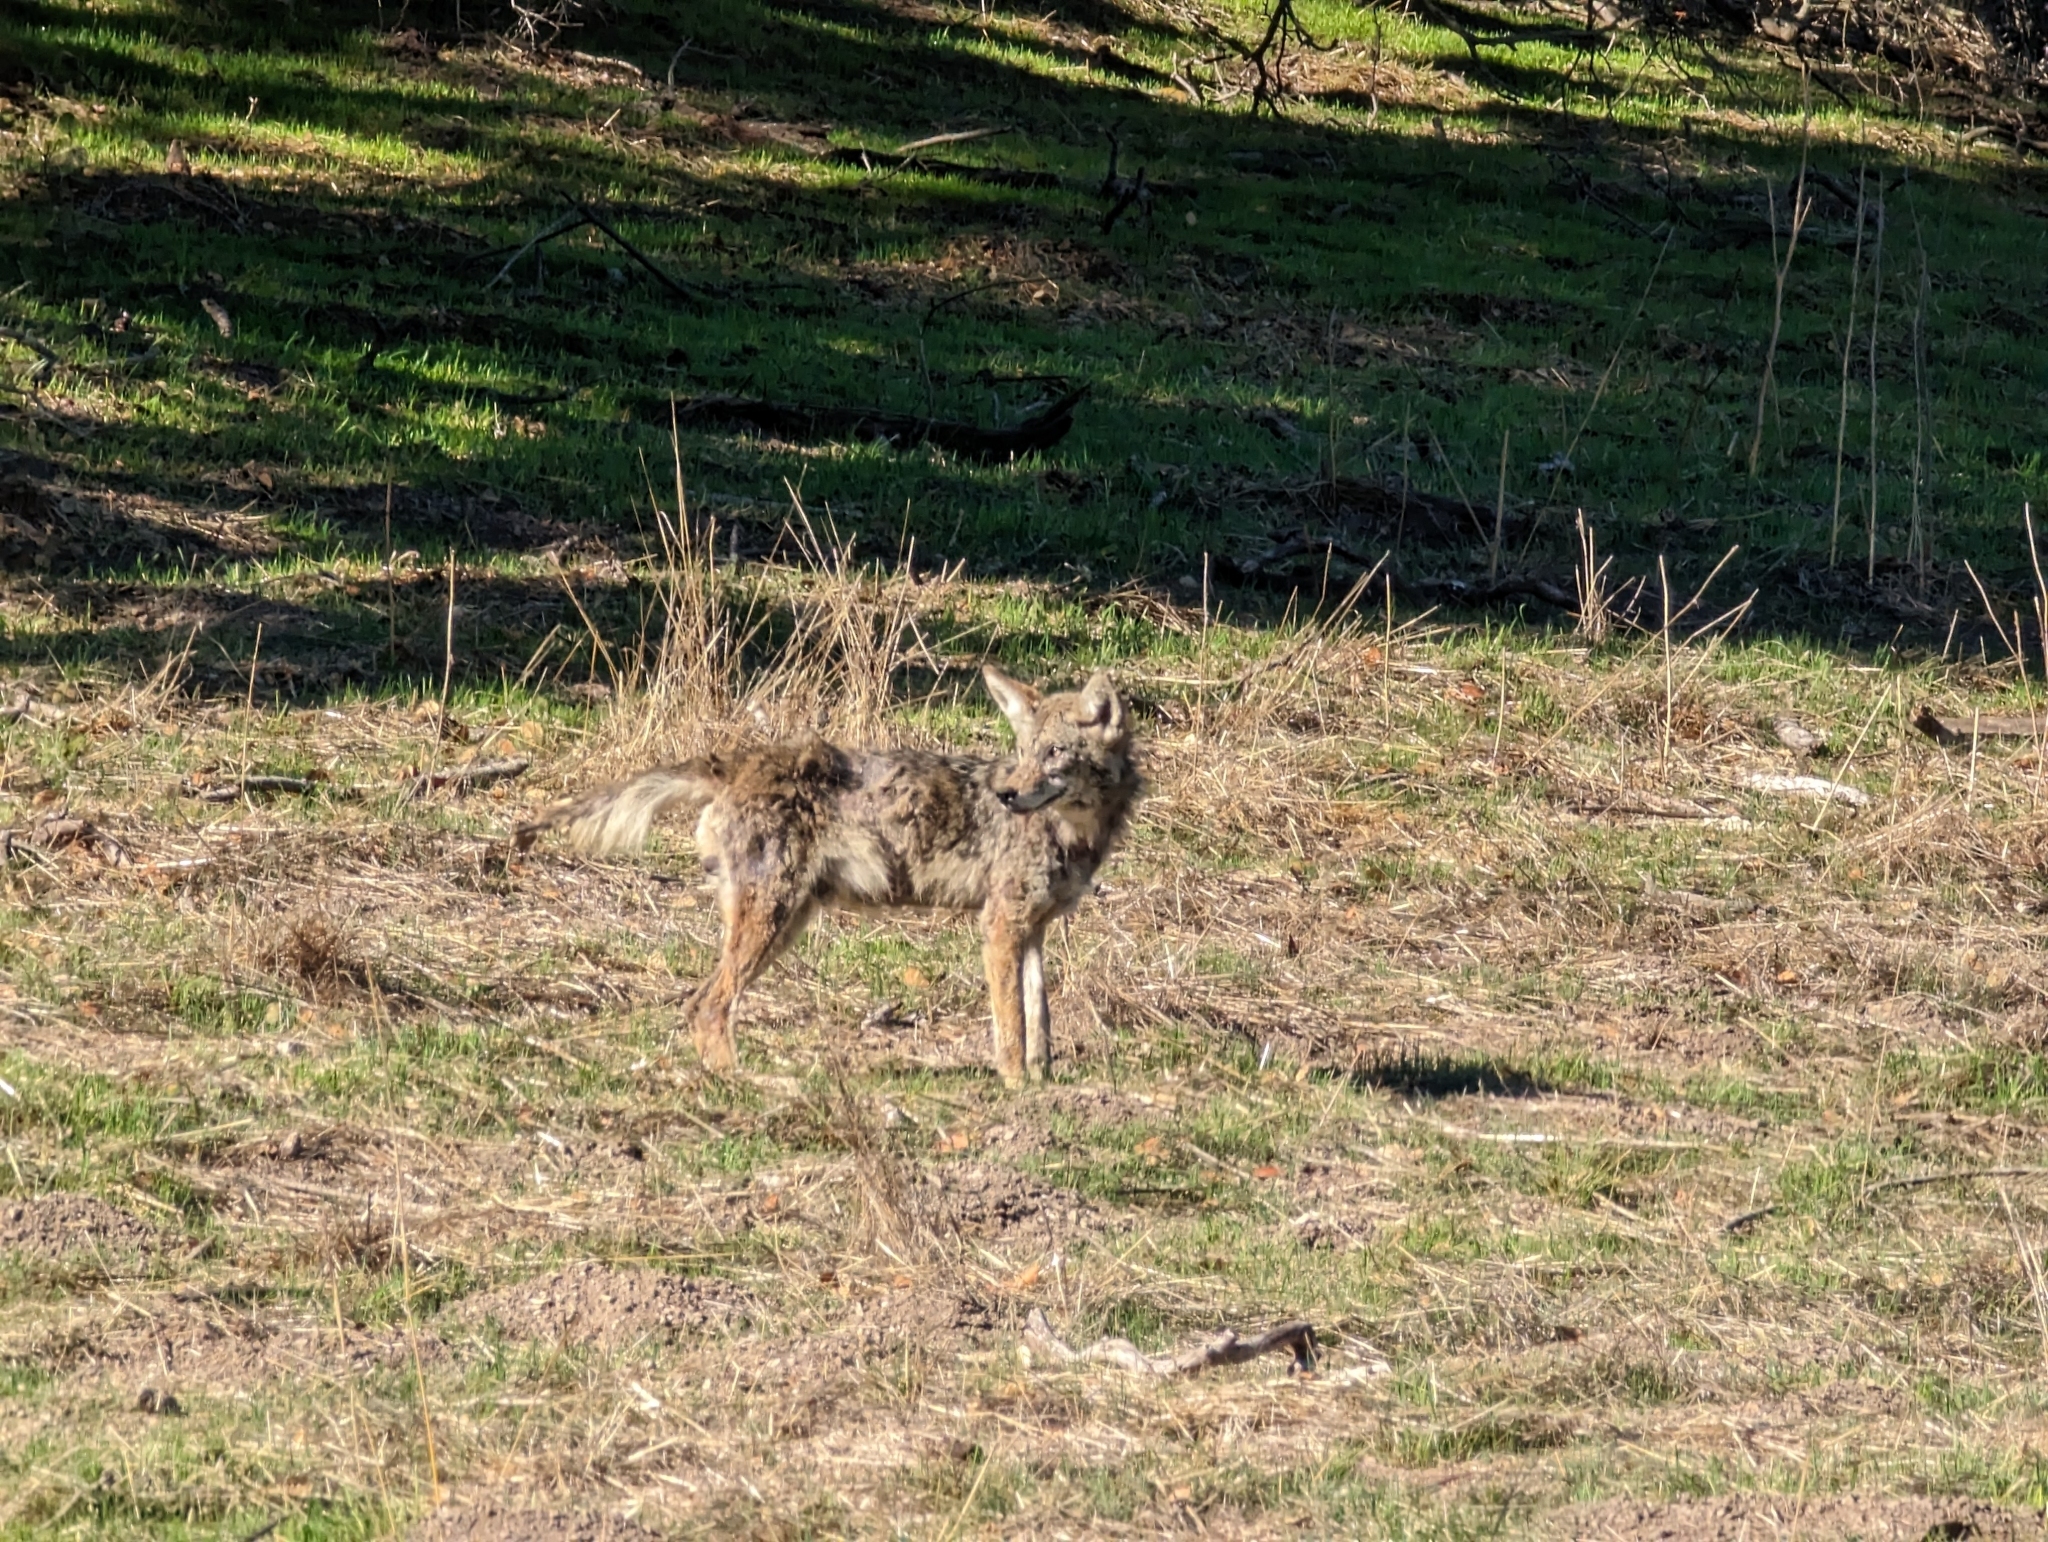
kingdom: Animalia
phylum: Chordata
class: Mammalia
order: Carnivora
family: Canidae
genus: Canis
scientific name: Canis latrans
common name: Coyote
